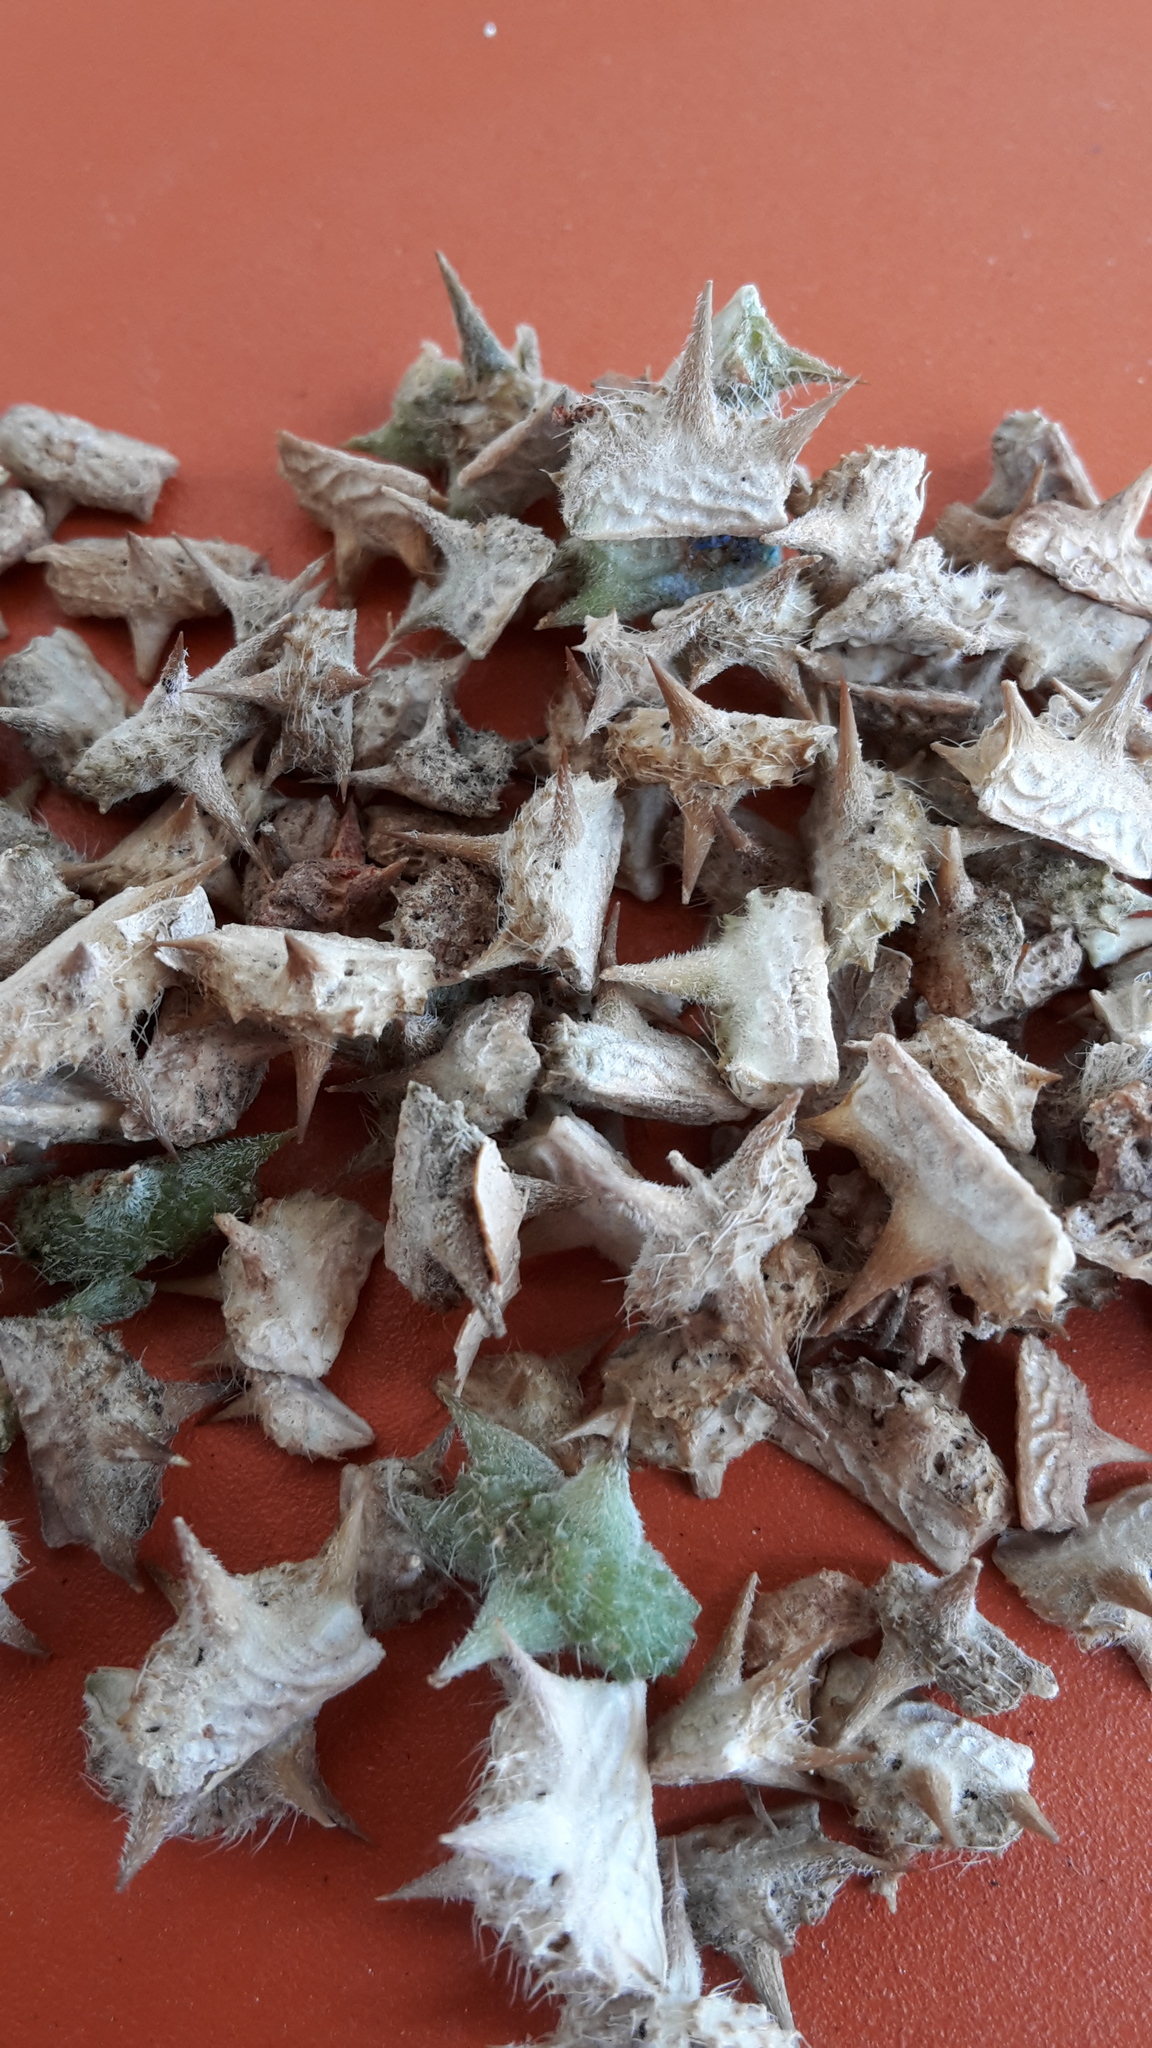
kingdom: Plantae
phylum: Tracheophyta
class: Magnoliopsida
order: Zygophyllales
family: Zygophyllaceae
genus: Tribulus
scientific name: Tribulus terrestris
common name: Puncturevine
